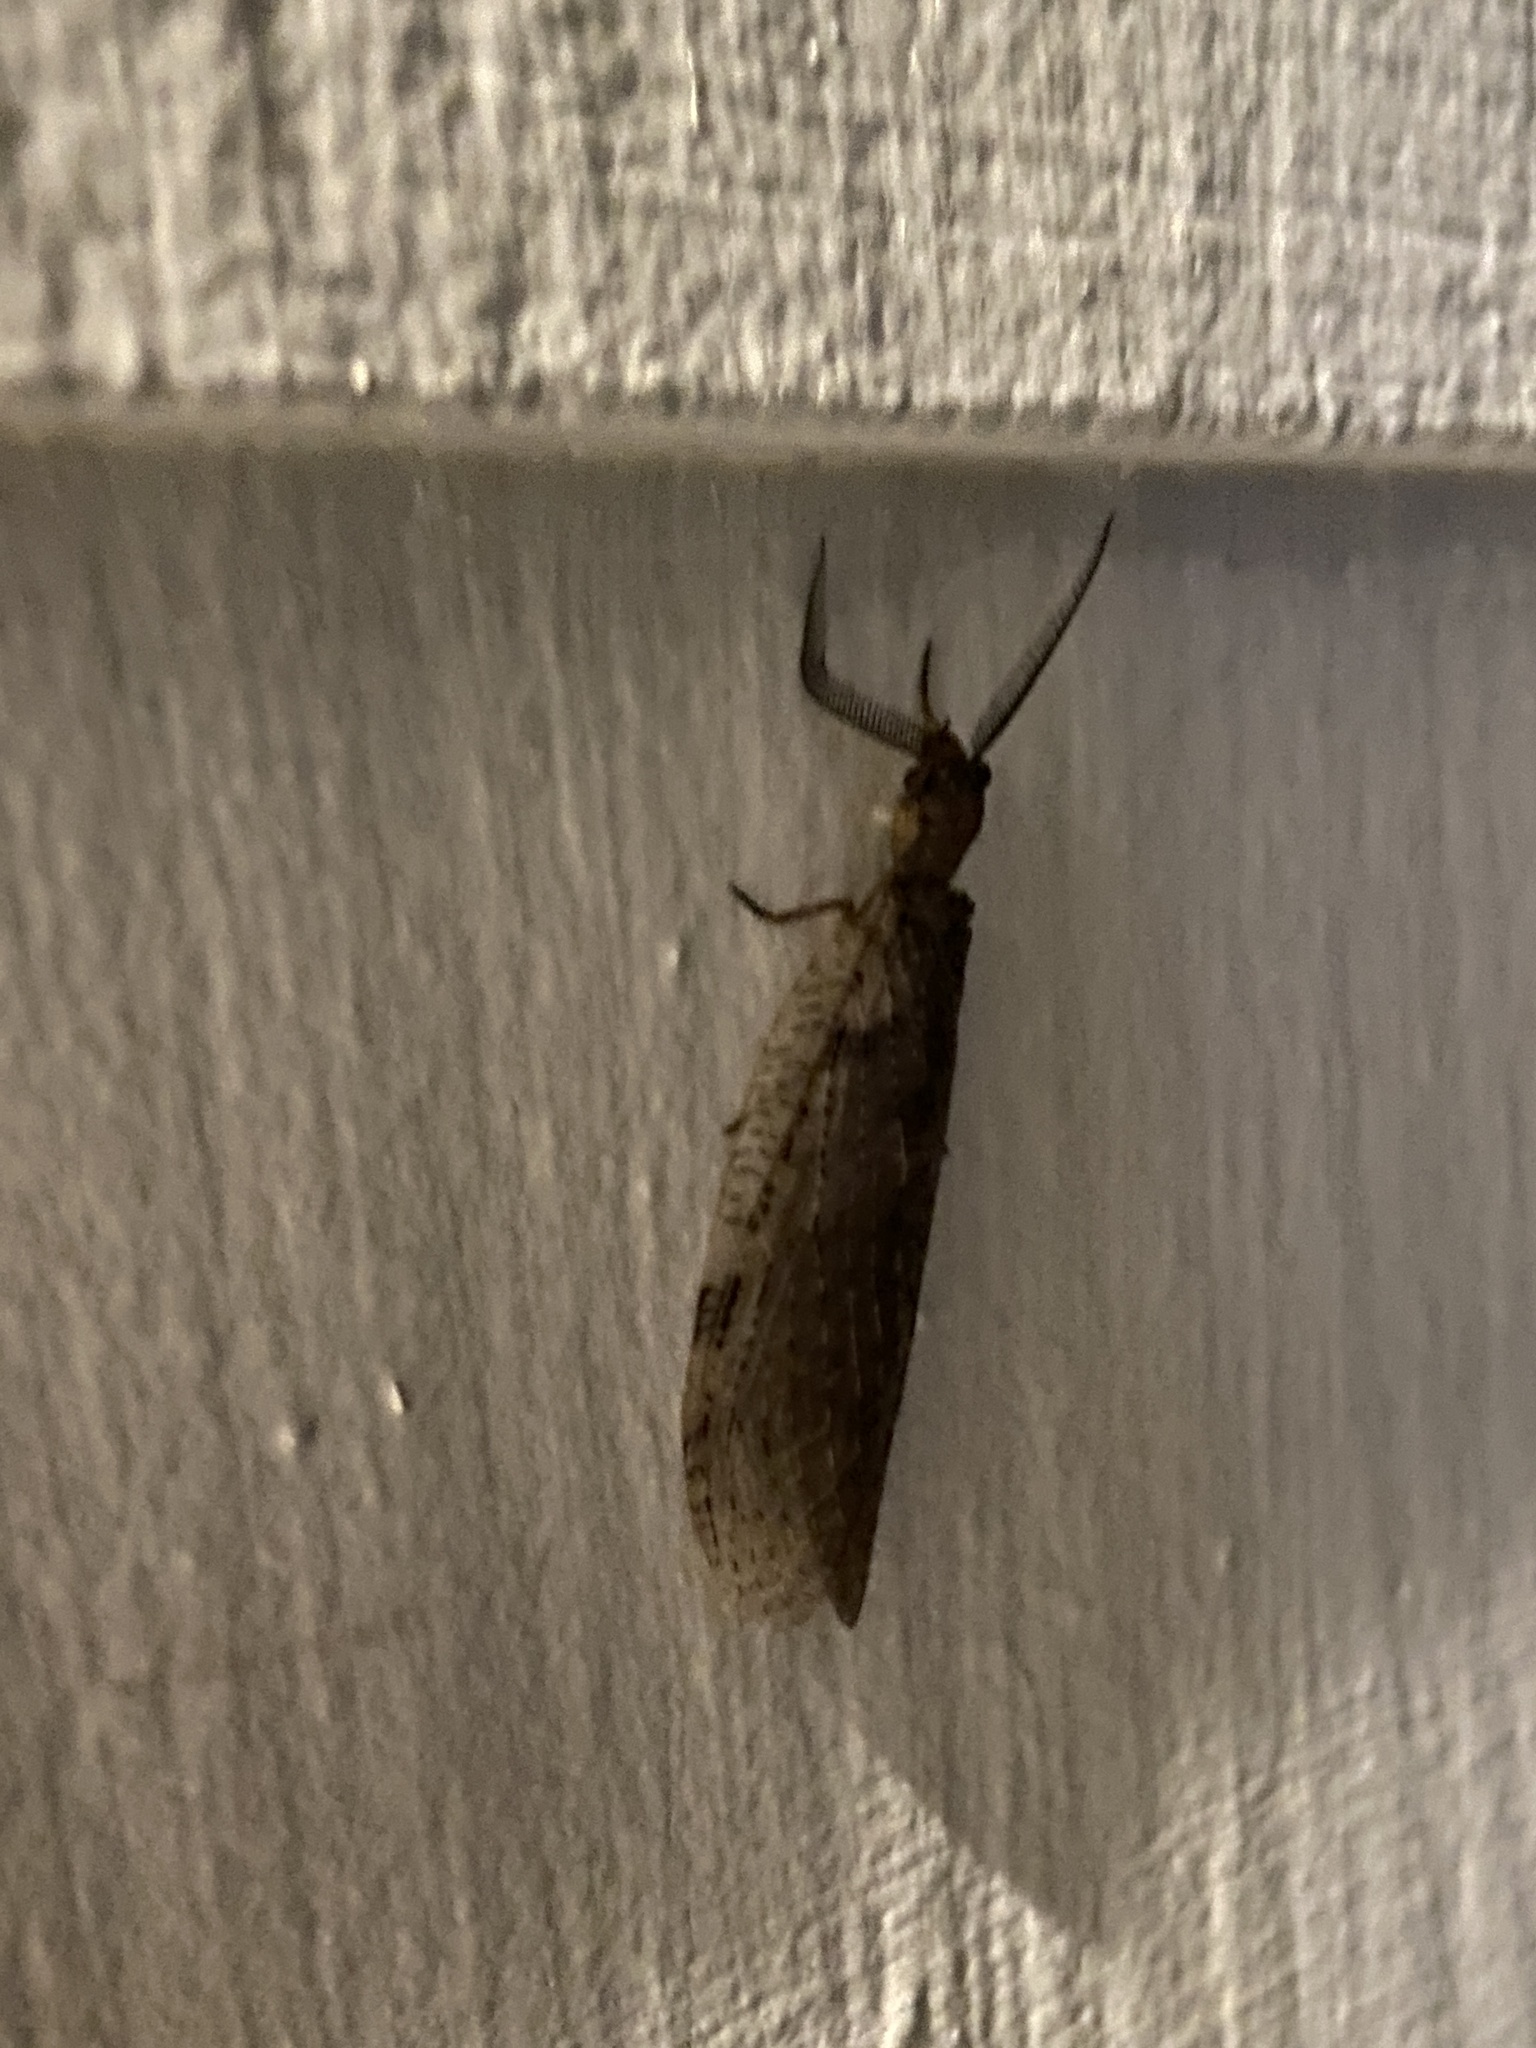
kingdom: Animalia
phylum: Arthropoda
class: Insecta
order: Megaloptera
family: Corydalidae
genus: Chauliodes
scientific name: Chauliodes pectinicornis
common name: Summer fishfly
